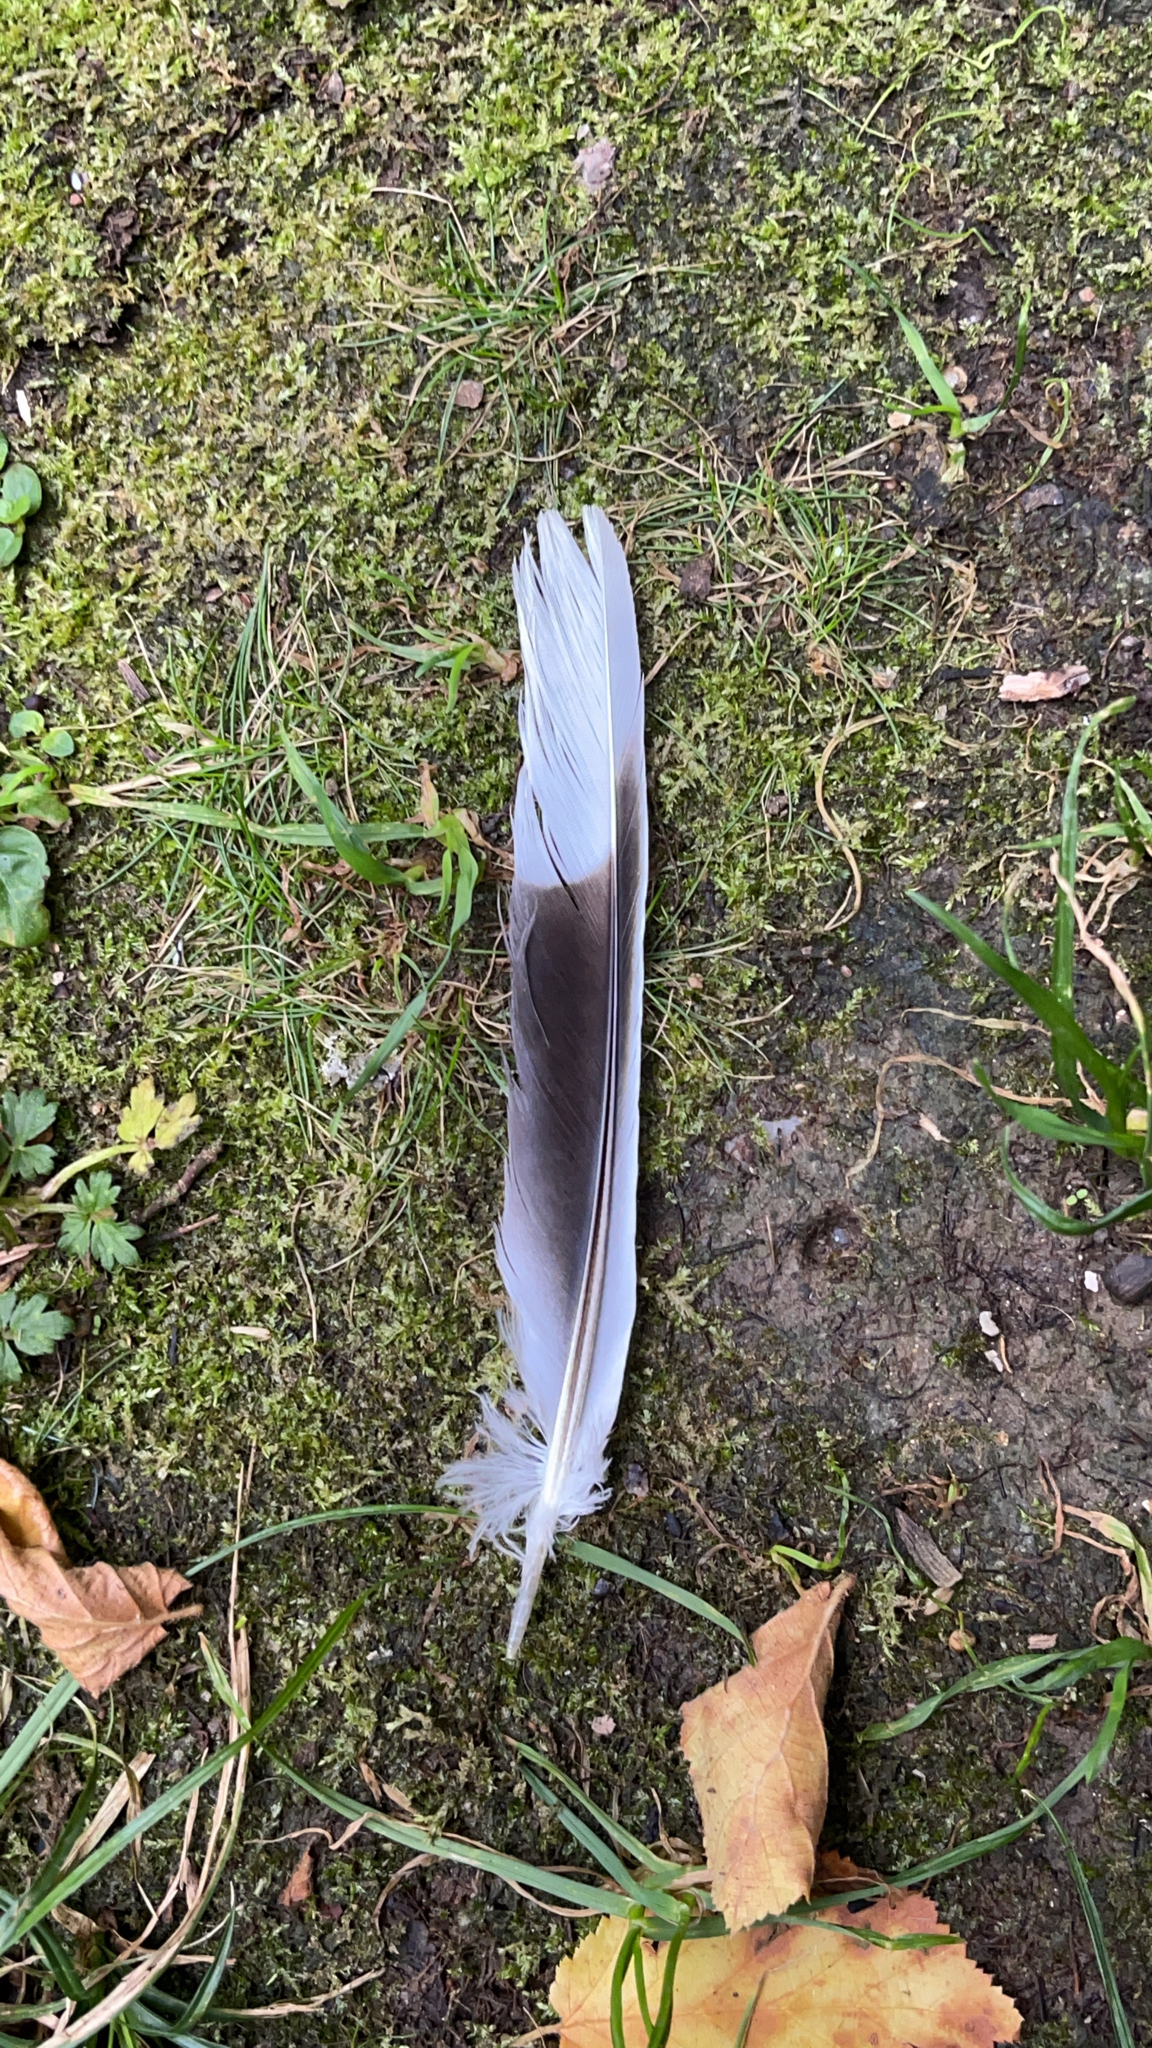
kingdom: Animalia
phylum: Chordata
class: Aves
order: Columbiformes
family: Columbidae
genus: Streptopelia
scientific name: Streptopelia decaocto
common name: Eurasian collared dove
